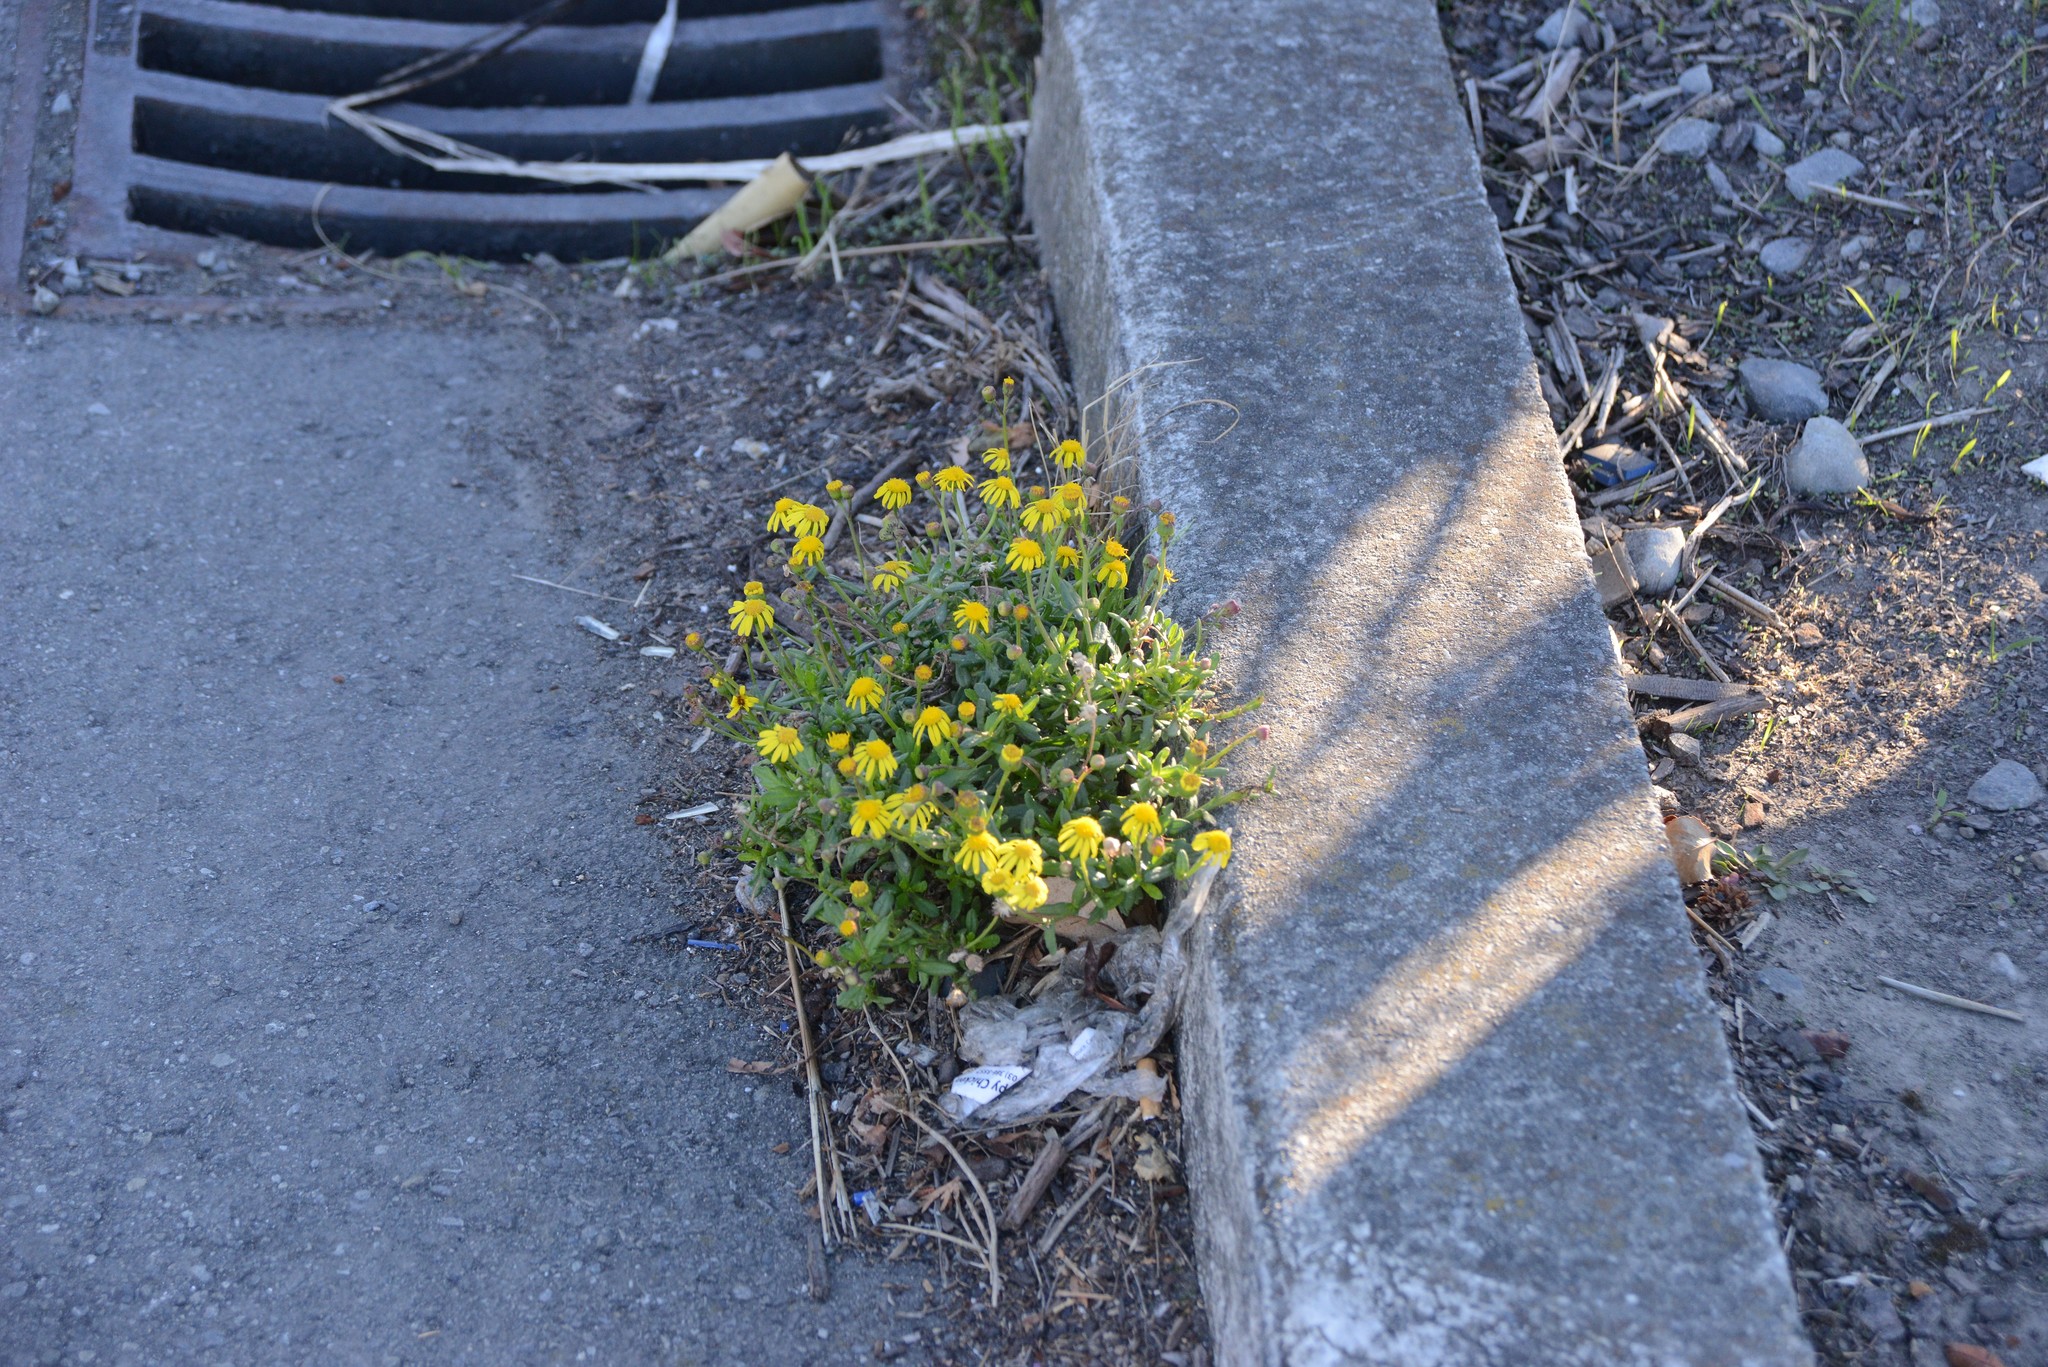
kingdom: Plantae
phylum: Tracheophyta
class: Magnoliopsida
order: Asterales
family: Asteraceae
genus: Senecio
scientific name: Senecio skirrhodon
